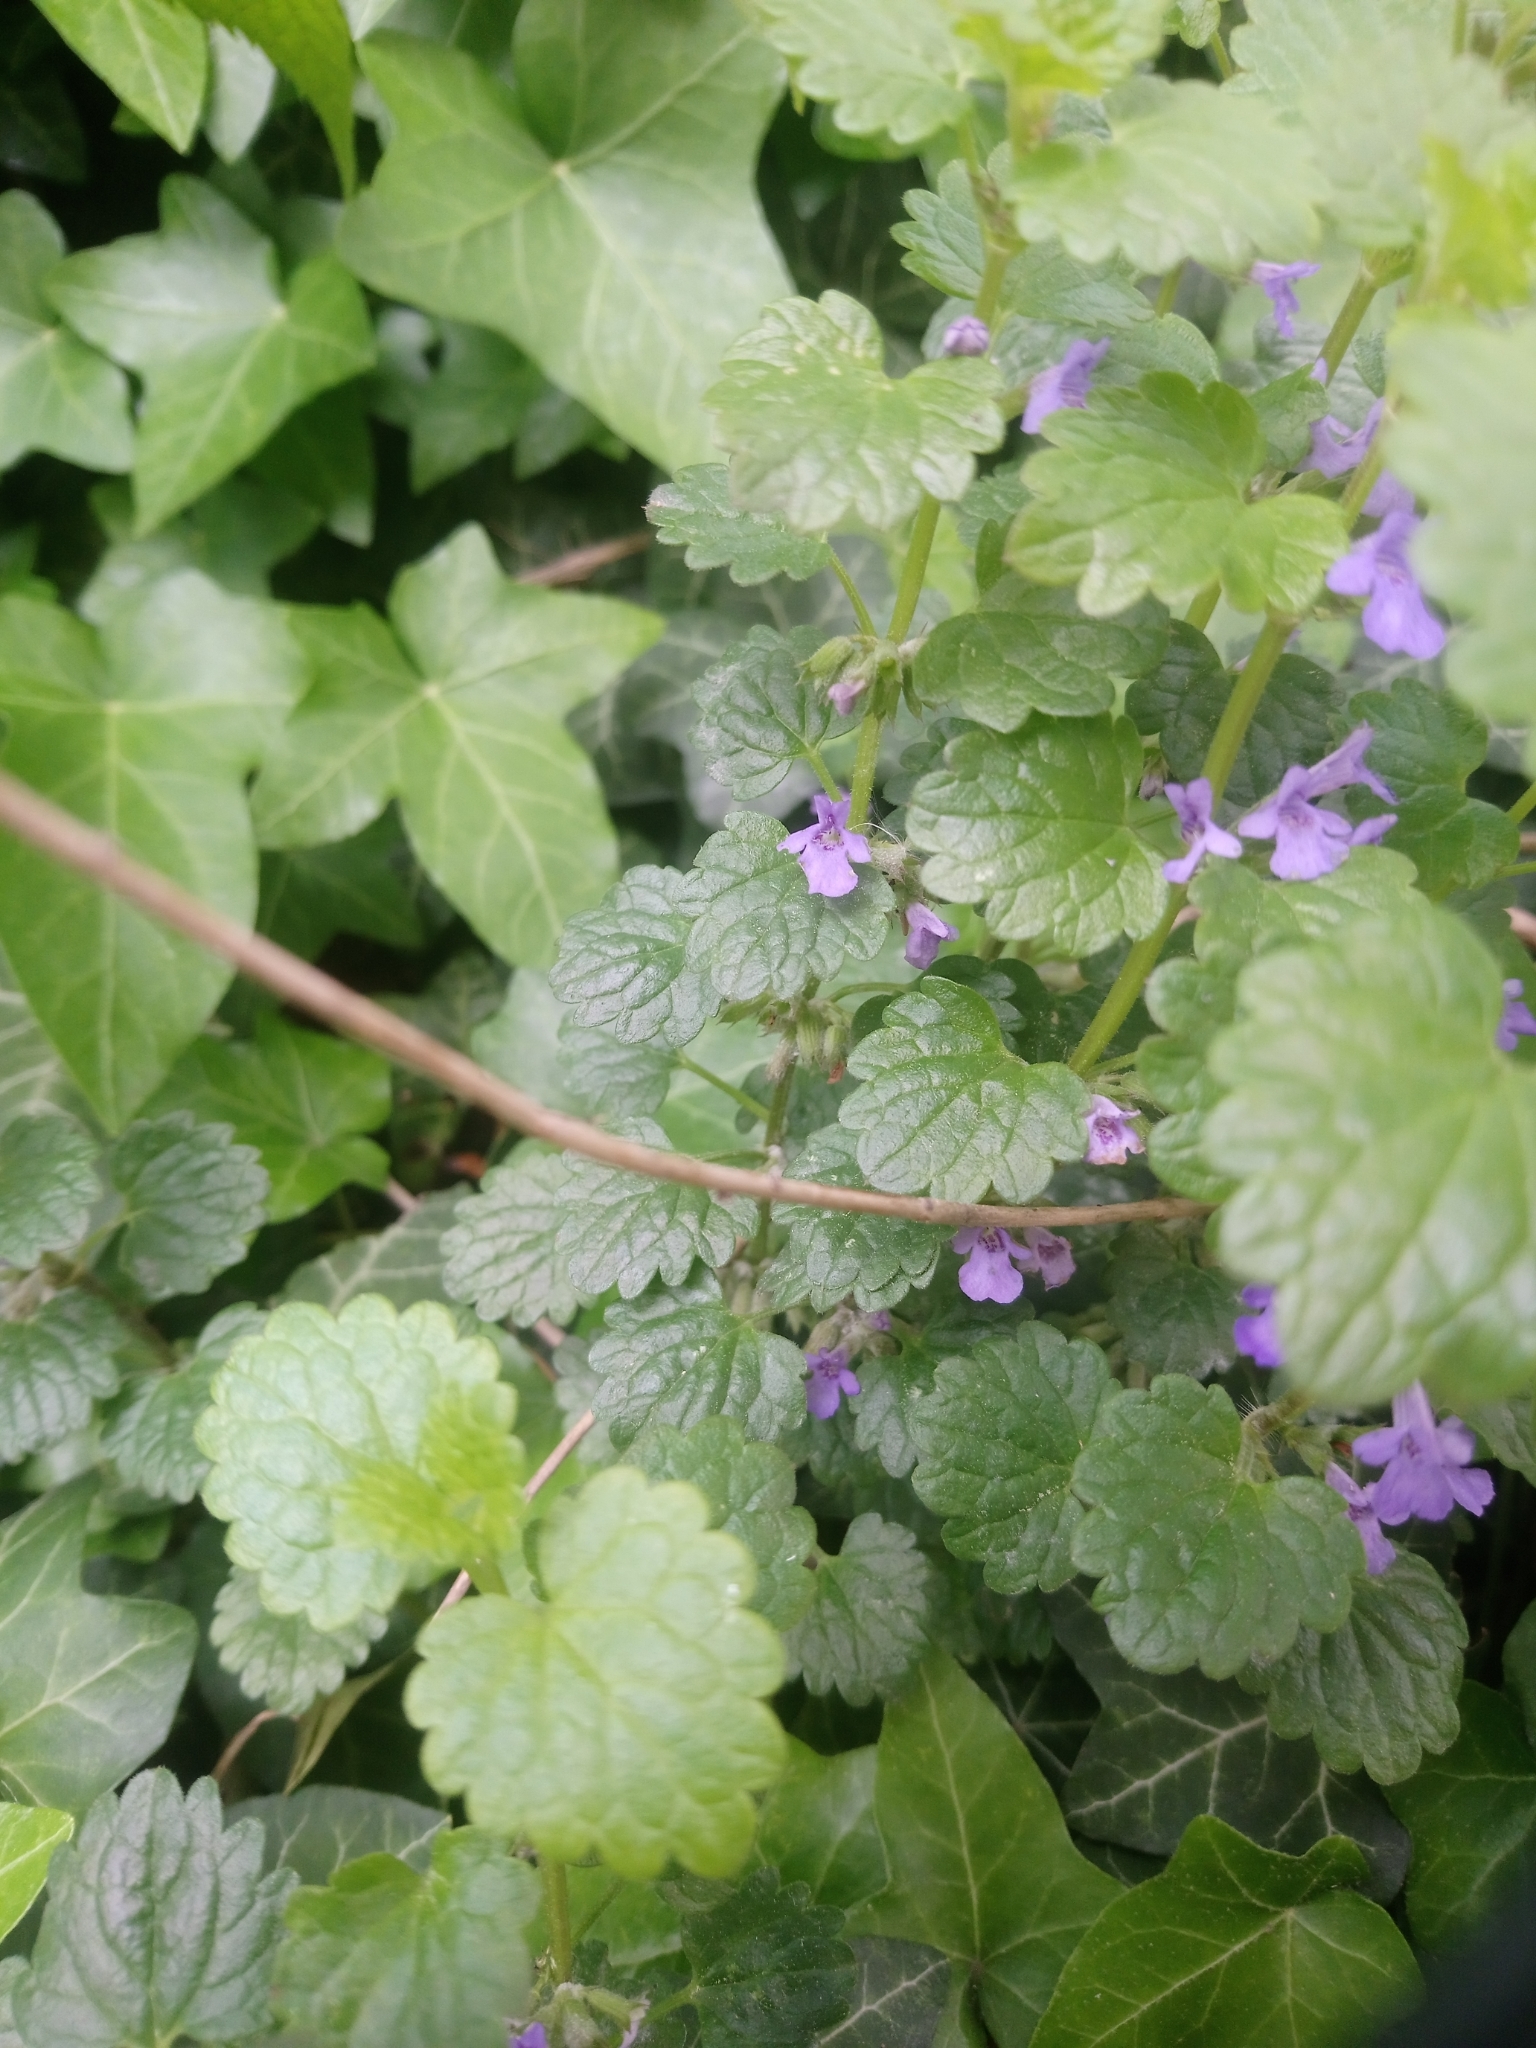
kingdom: Plantae
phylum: Tracheophyta
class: Magnoliopsida
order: Lamiales
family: Lamiaceae
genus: Glechoma
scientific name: Glechoma hederacea
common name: Ground ivy
